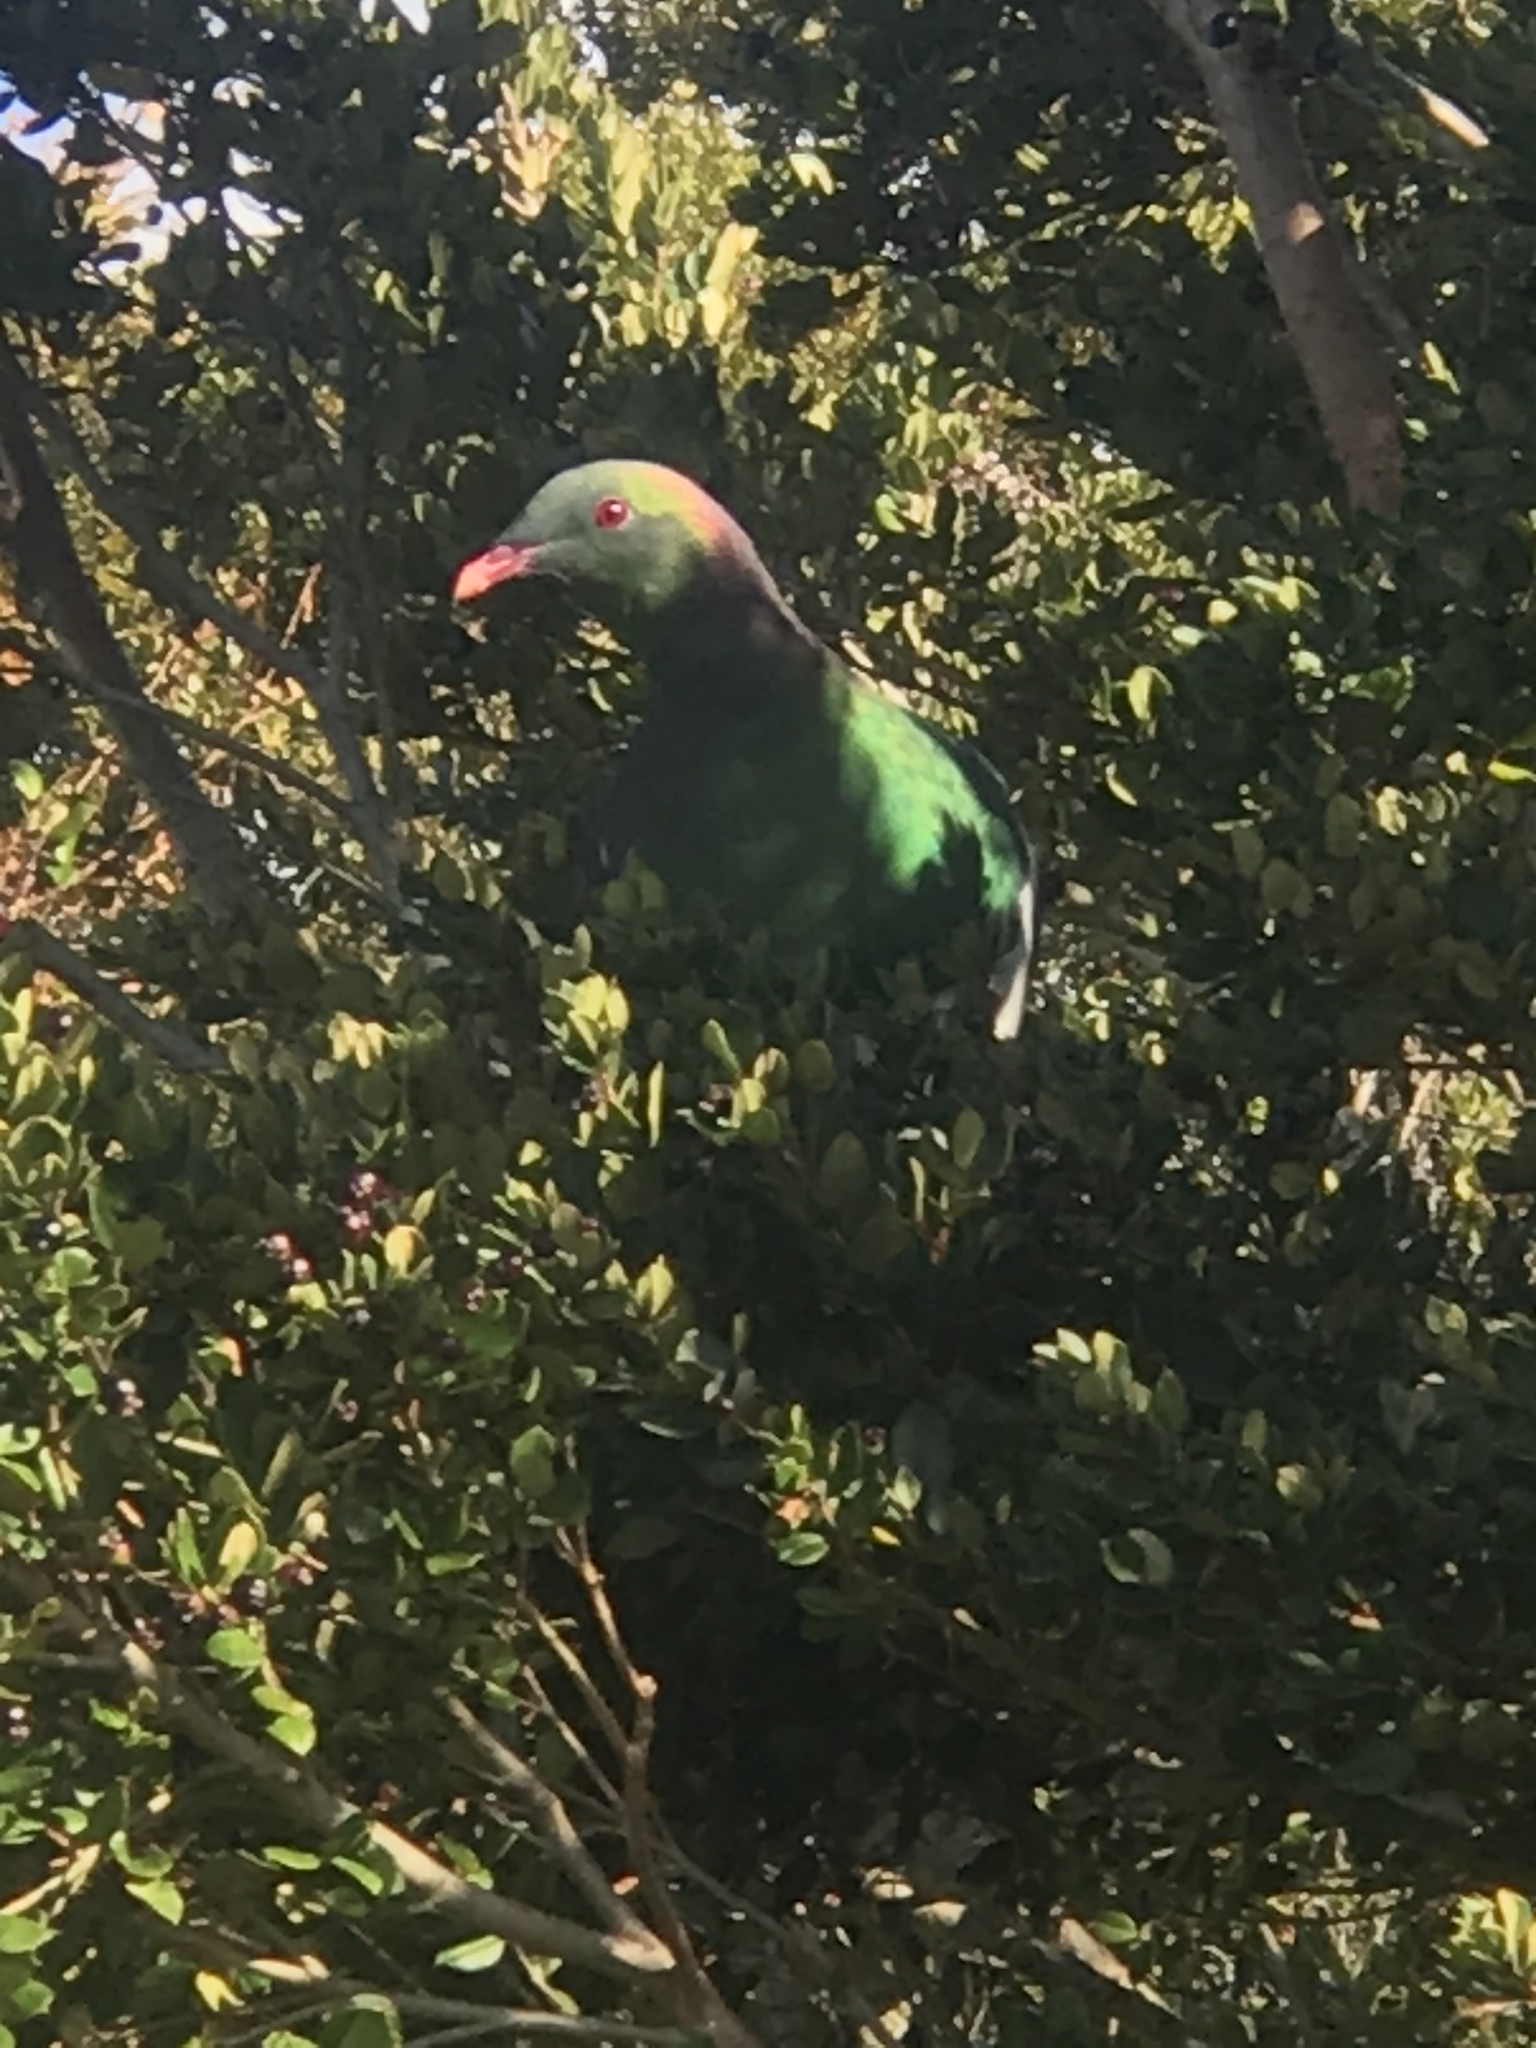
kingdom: Animalia
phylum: Chordata
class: Aves
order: Columbiformes
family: Columbidae
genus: Hemiphaga
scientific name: Hemiphaga novaeseelandiae
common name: New zealand pigeon
